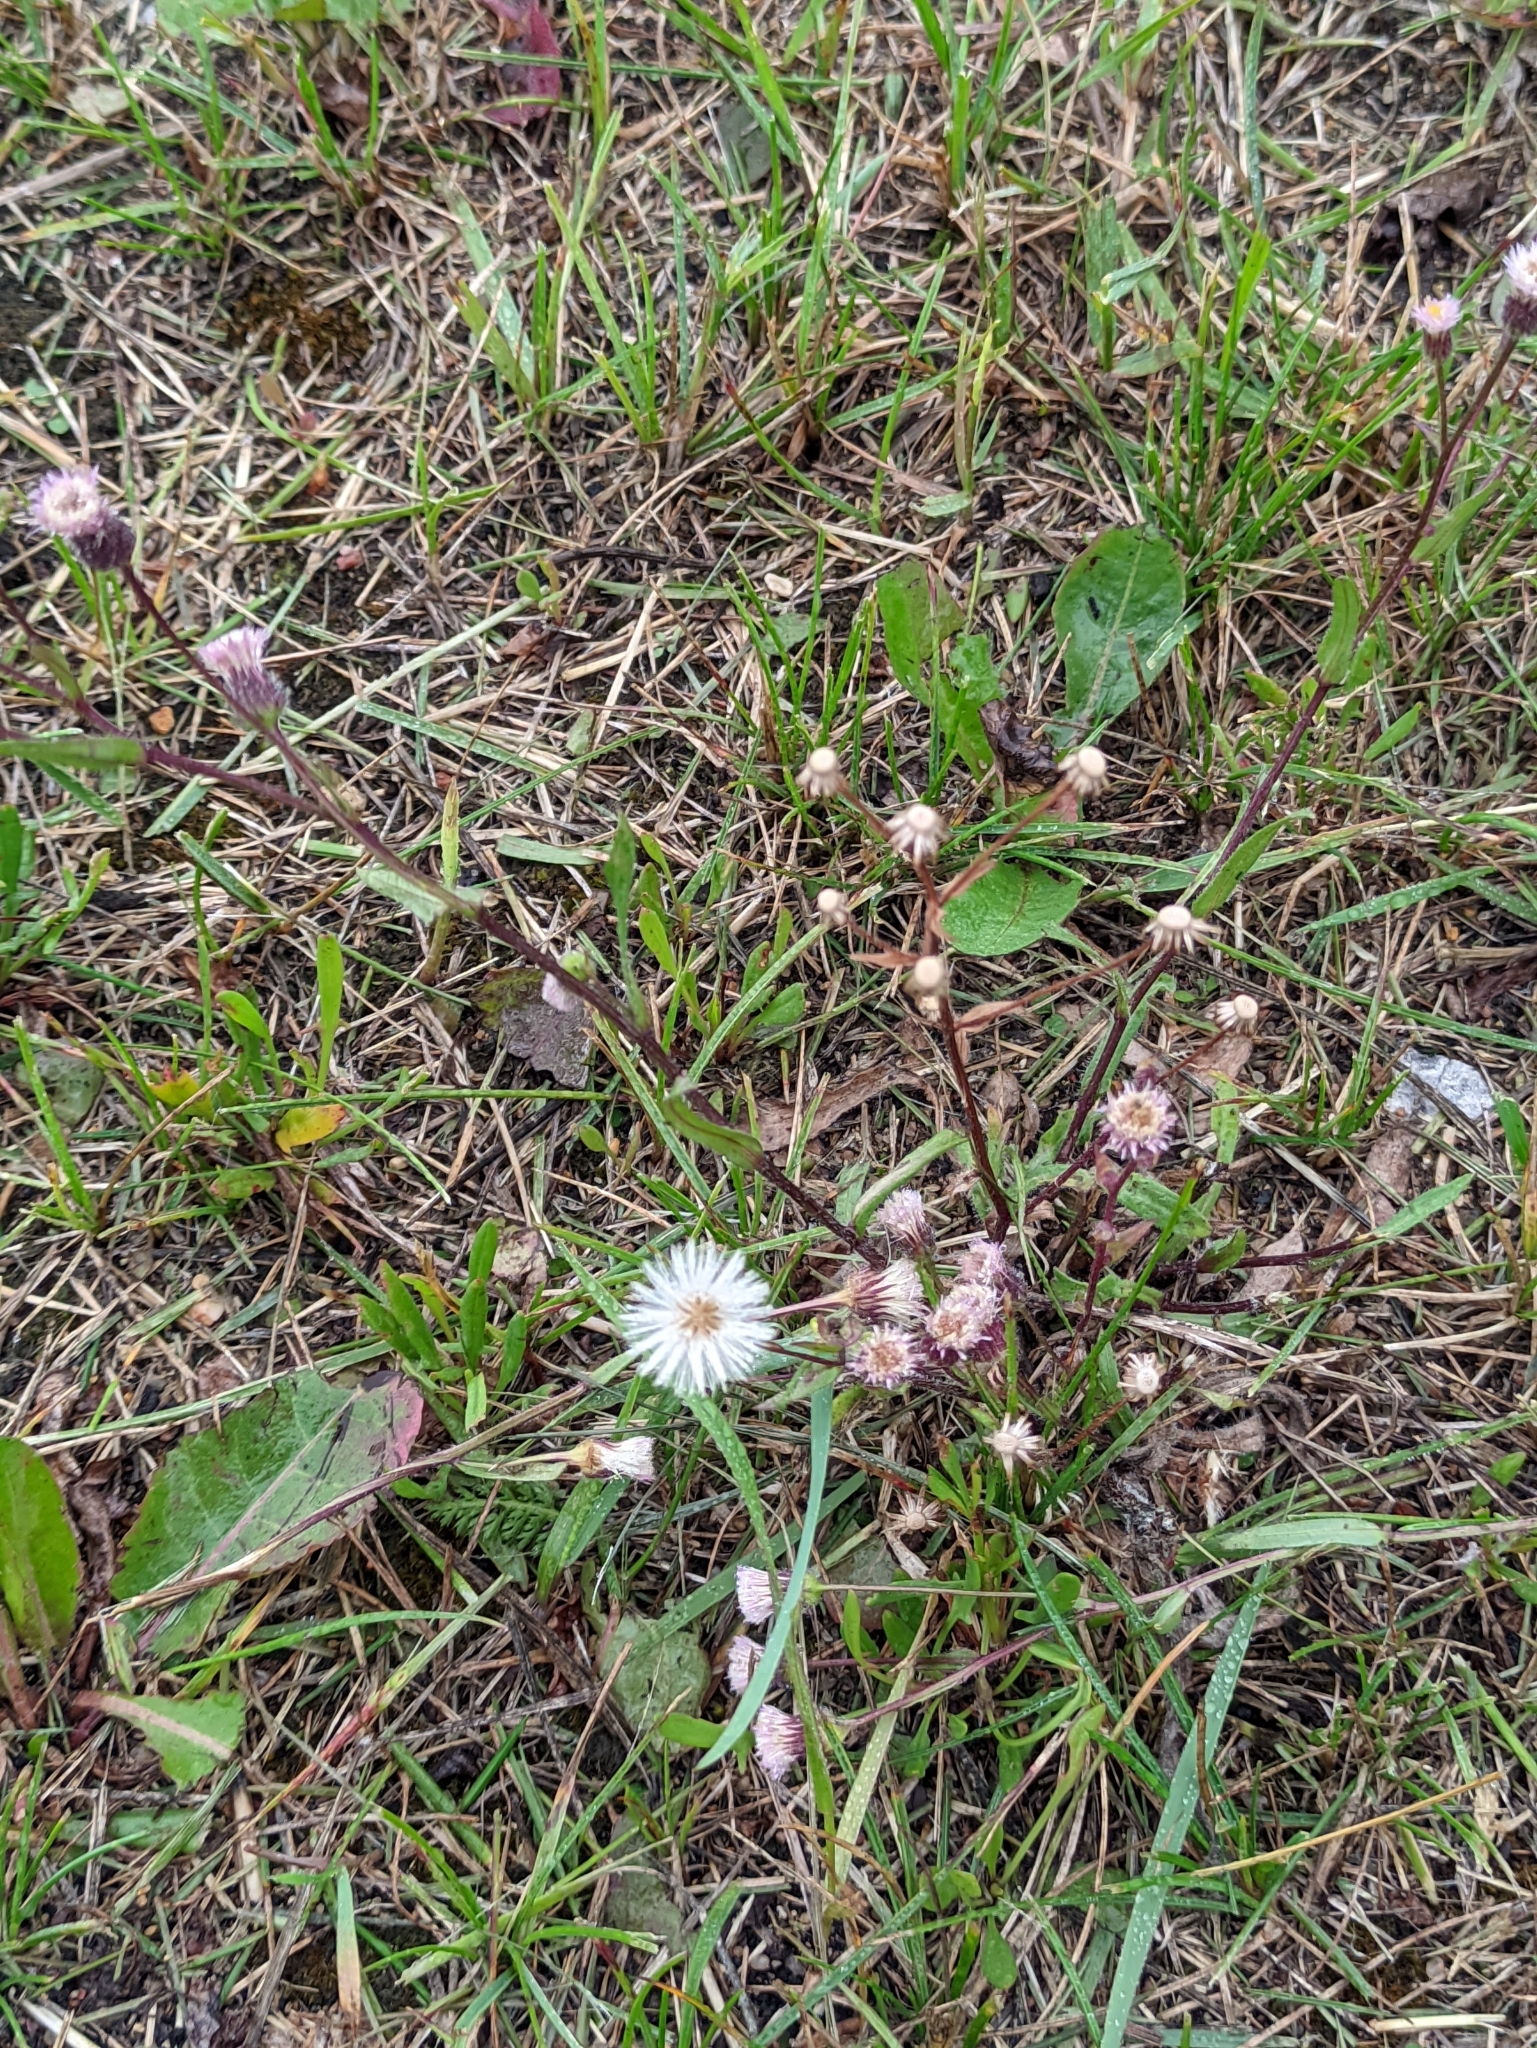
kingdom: Plantae
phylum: Tracheophyta
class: Magnoliopsida
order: Asterales
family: Asteraceae
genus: Erigeron
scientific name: Erigeron acris
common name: Blue fleabane
